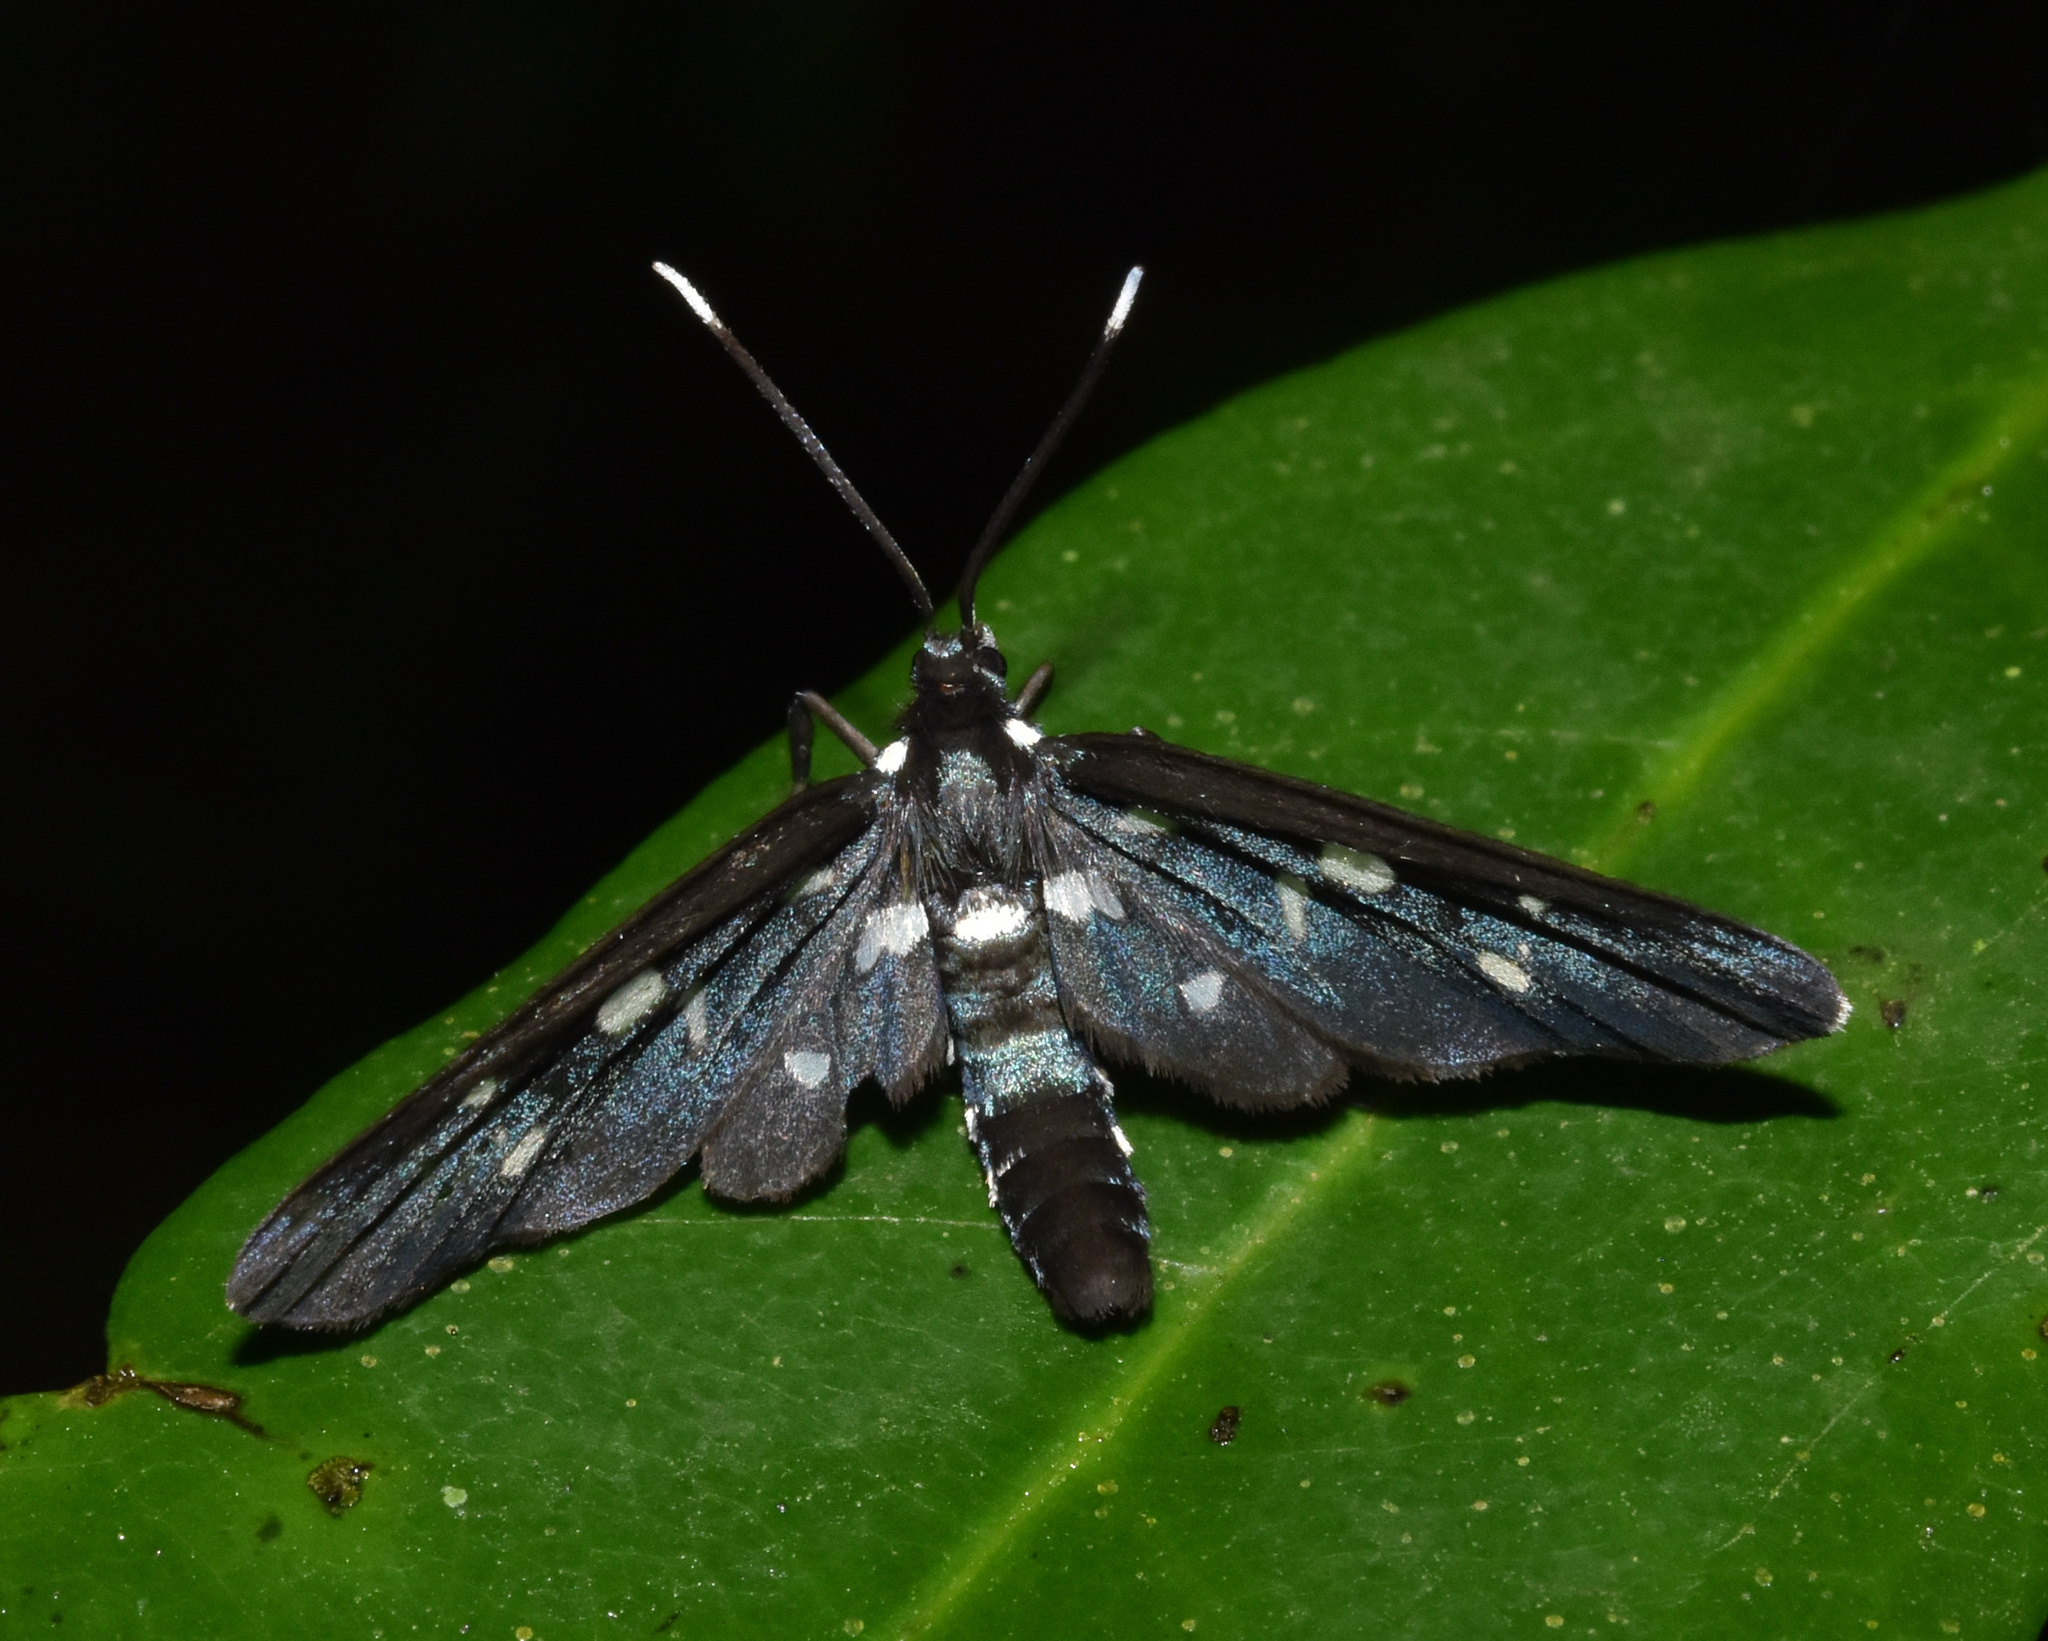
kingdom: Animalia
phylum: Arthropoda
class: Insecta
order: Lepidoptera
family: Erebidae
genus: Ceryx
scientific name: Ceryx longipes
